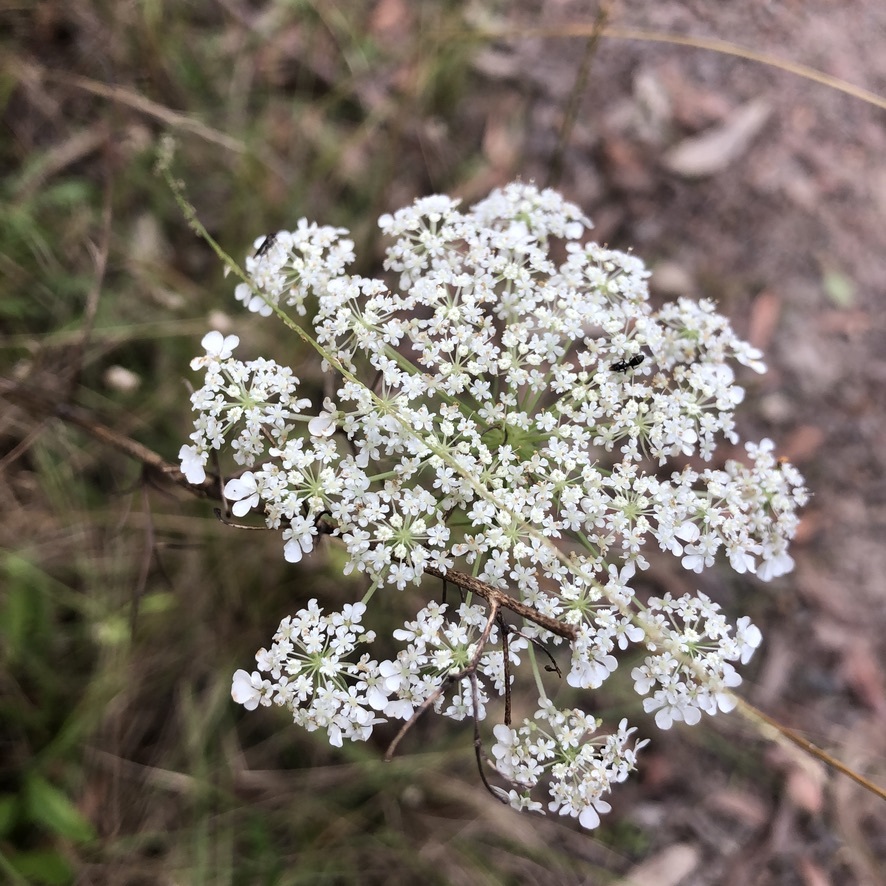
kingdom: Plantae
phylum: Tracheophyta
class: Magnoliopsida
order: Apiales
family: Apiaceae
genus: Daucus
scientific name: Daucus carota
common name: Wild carrot
